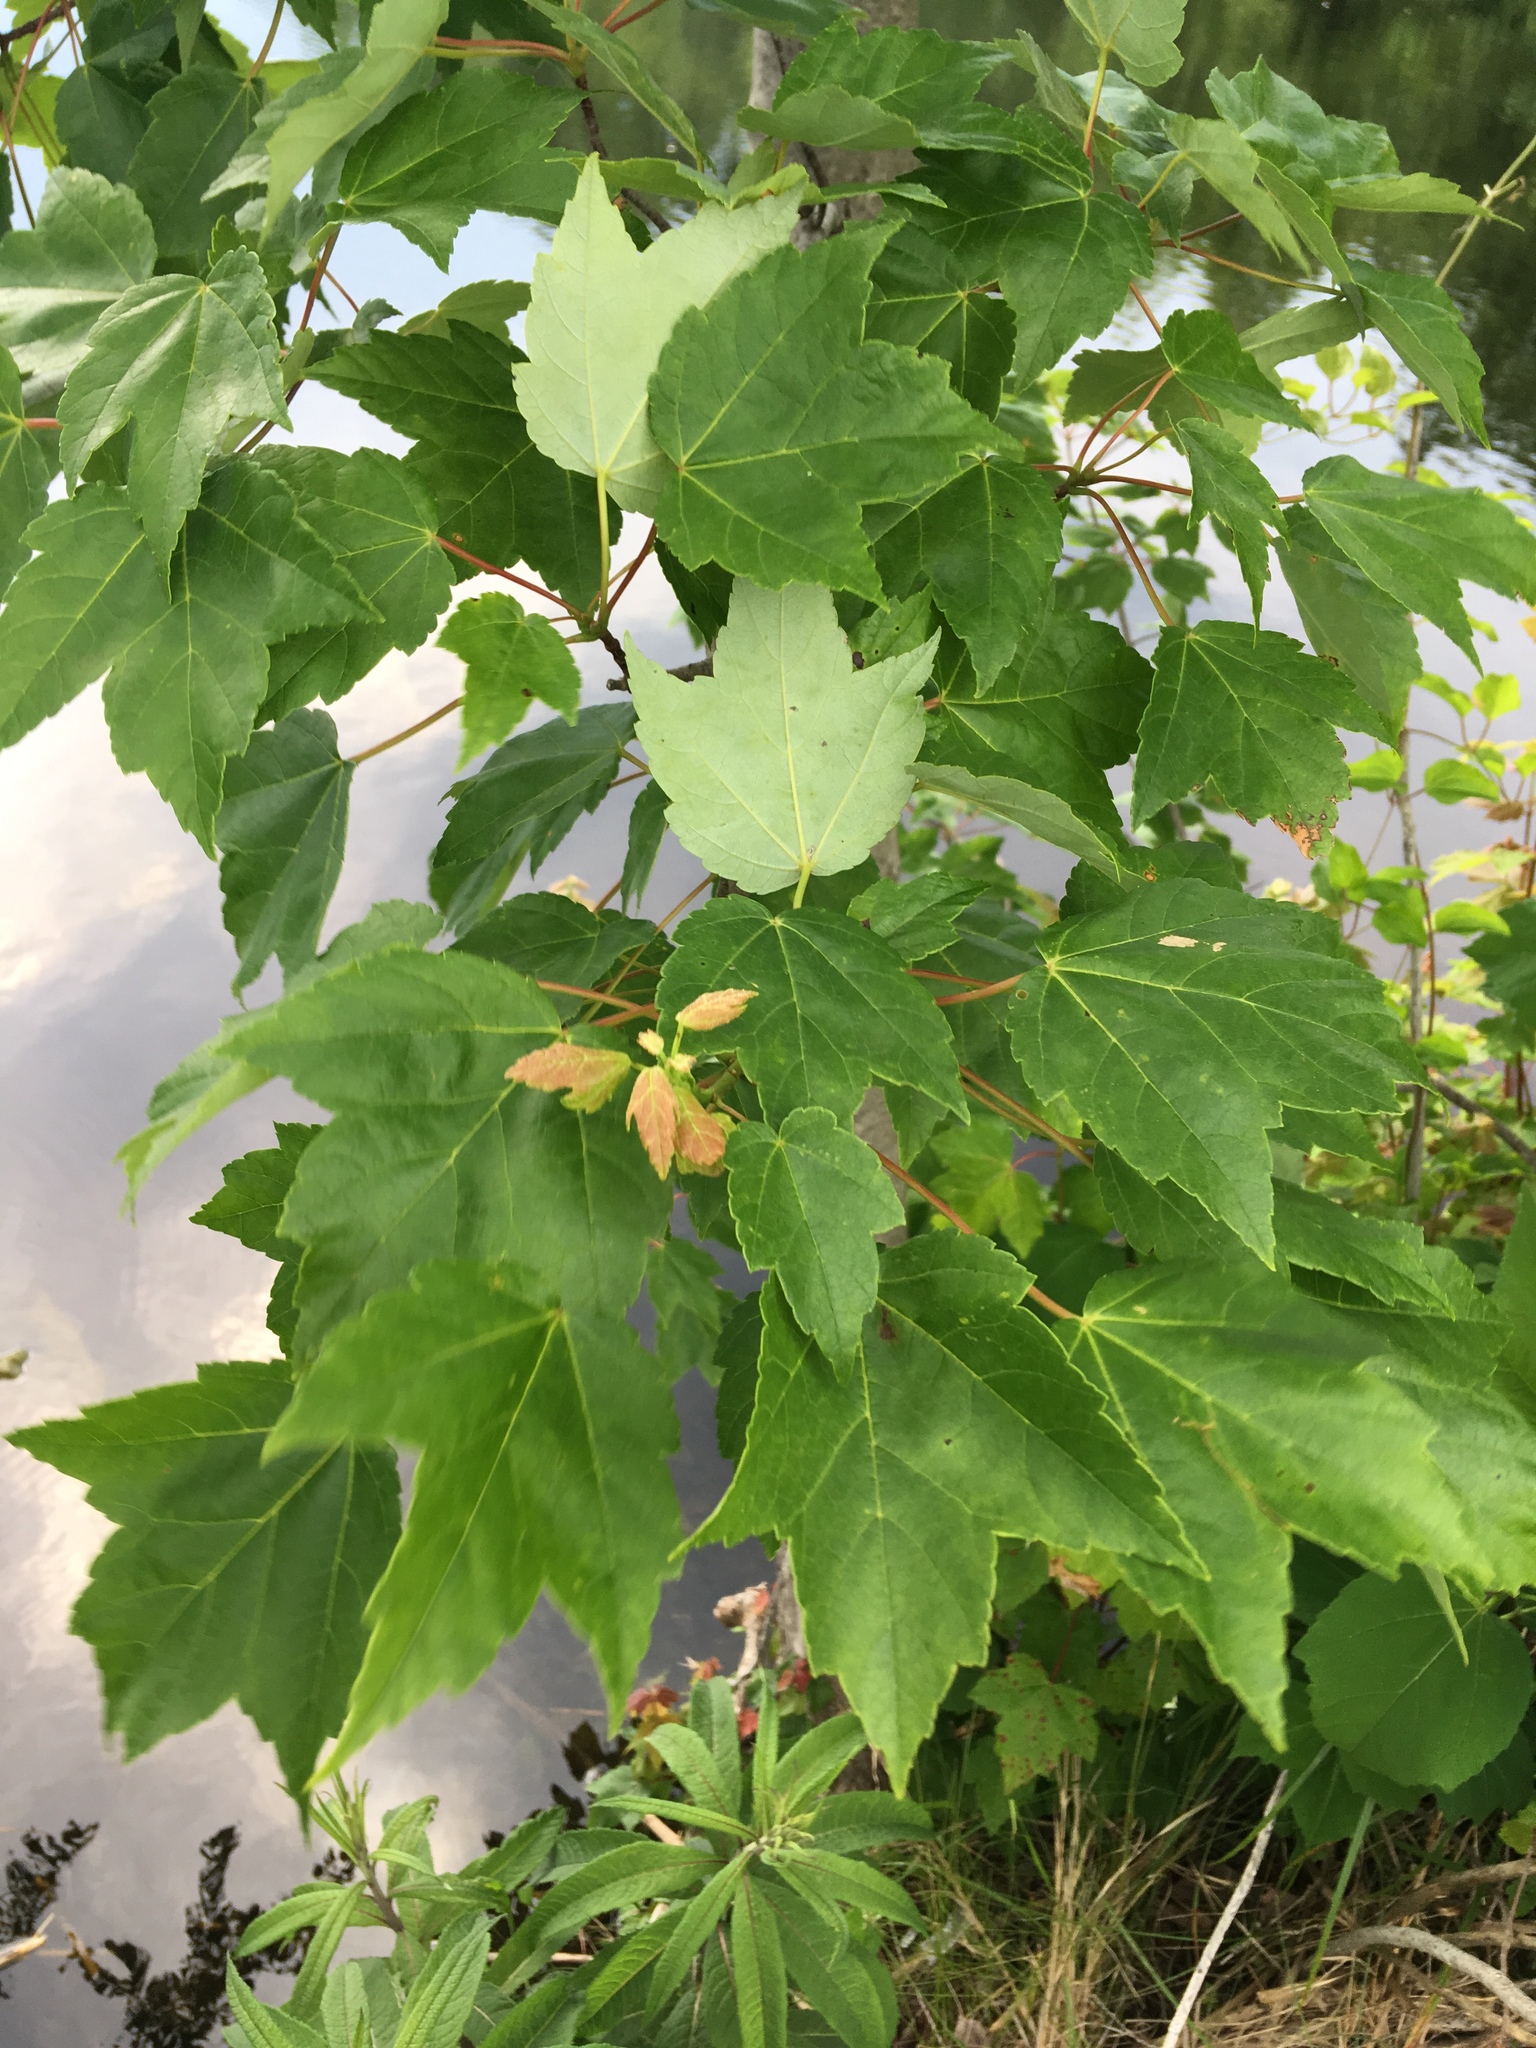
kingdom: Plantae
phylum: Tracheophyta
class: Magnoliopsida
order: Sapindales
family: Sapindaceae
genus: Acer
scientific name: Acer rubrum
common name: Red maple
